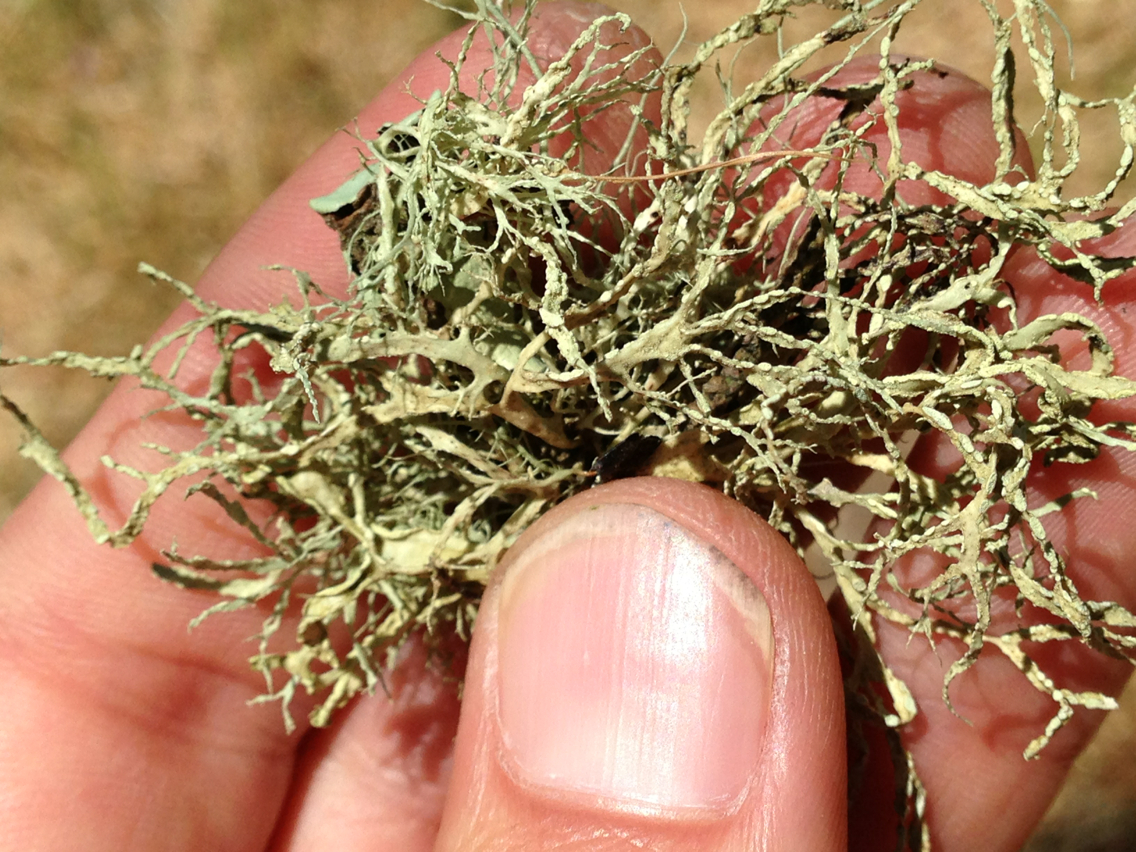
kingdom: Fungi
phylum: Ascomycota
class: Lecanoromycetes
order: Lecanorales
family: Ramalinaceae
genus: Ramalina
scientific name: Ramalina farinacea
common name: Farinose cartilage lichen
